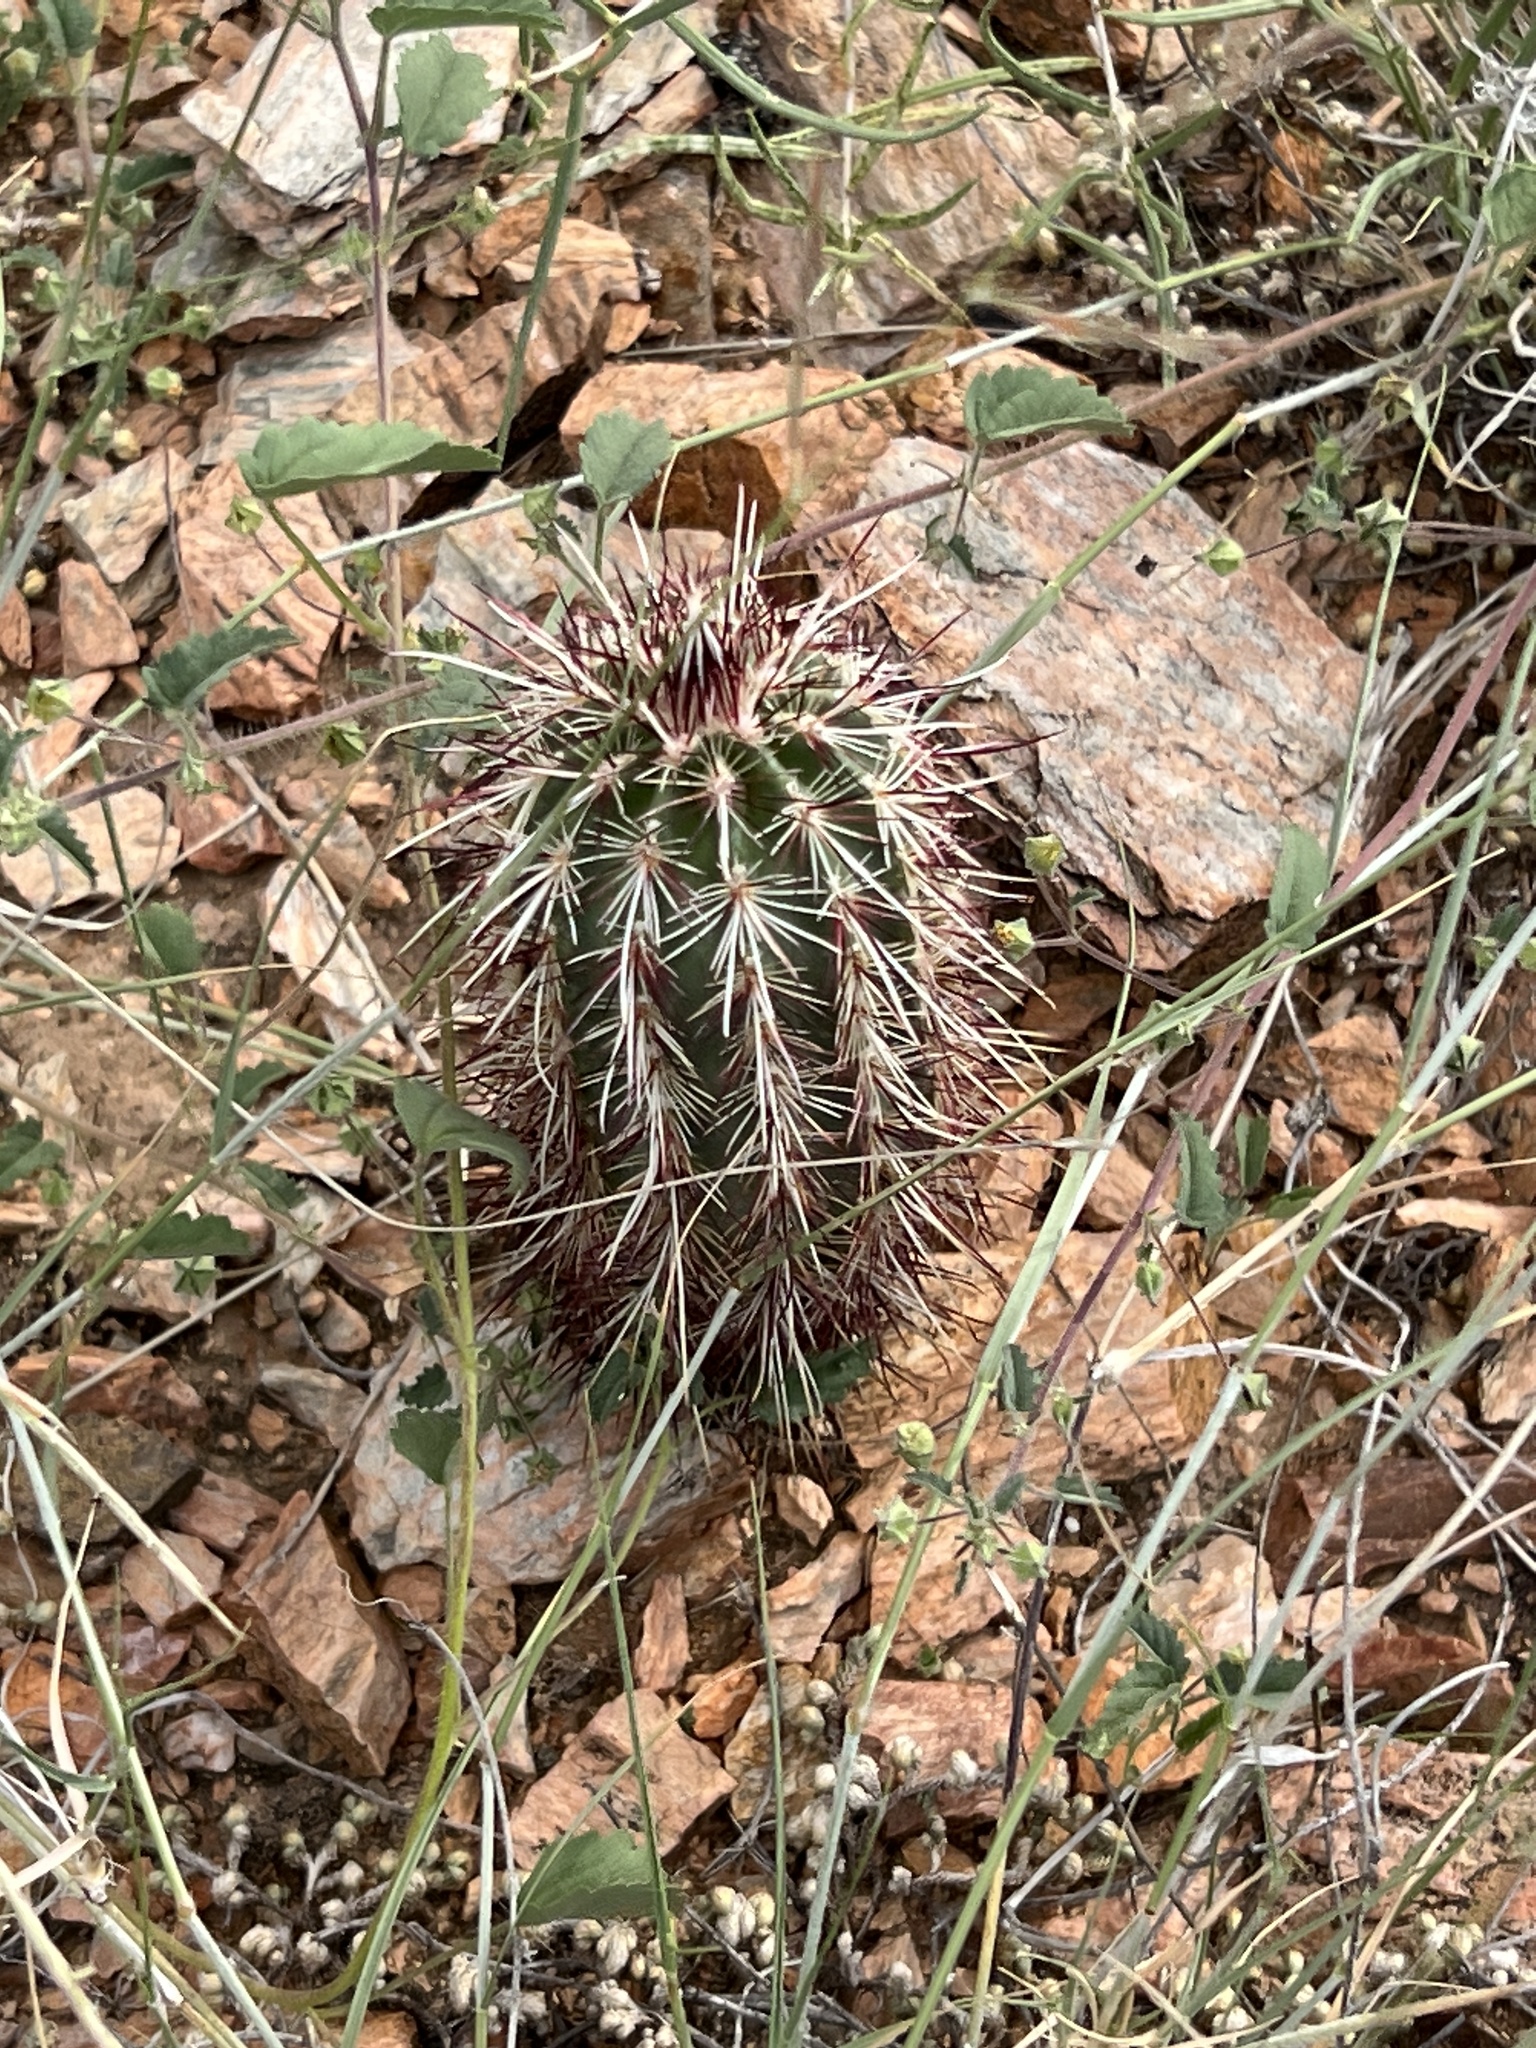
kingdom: Plantae
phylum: Tracheophyta
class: Magnoliopsida
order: Caryophyllales
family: Cactaceae
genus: Echinocereus
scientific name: Echinocereus viridiflorus
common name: Nylon hedgehog cactus
